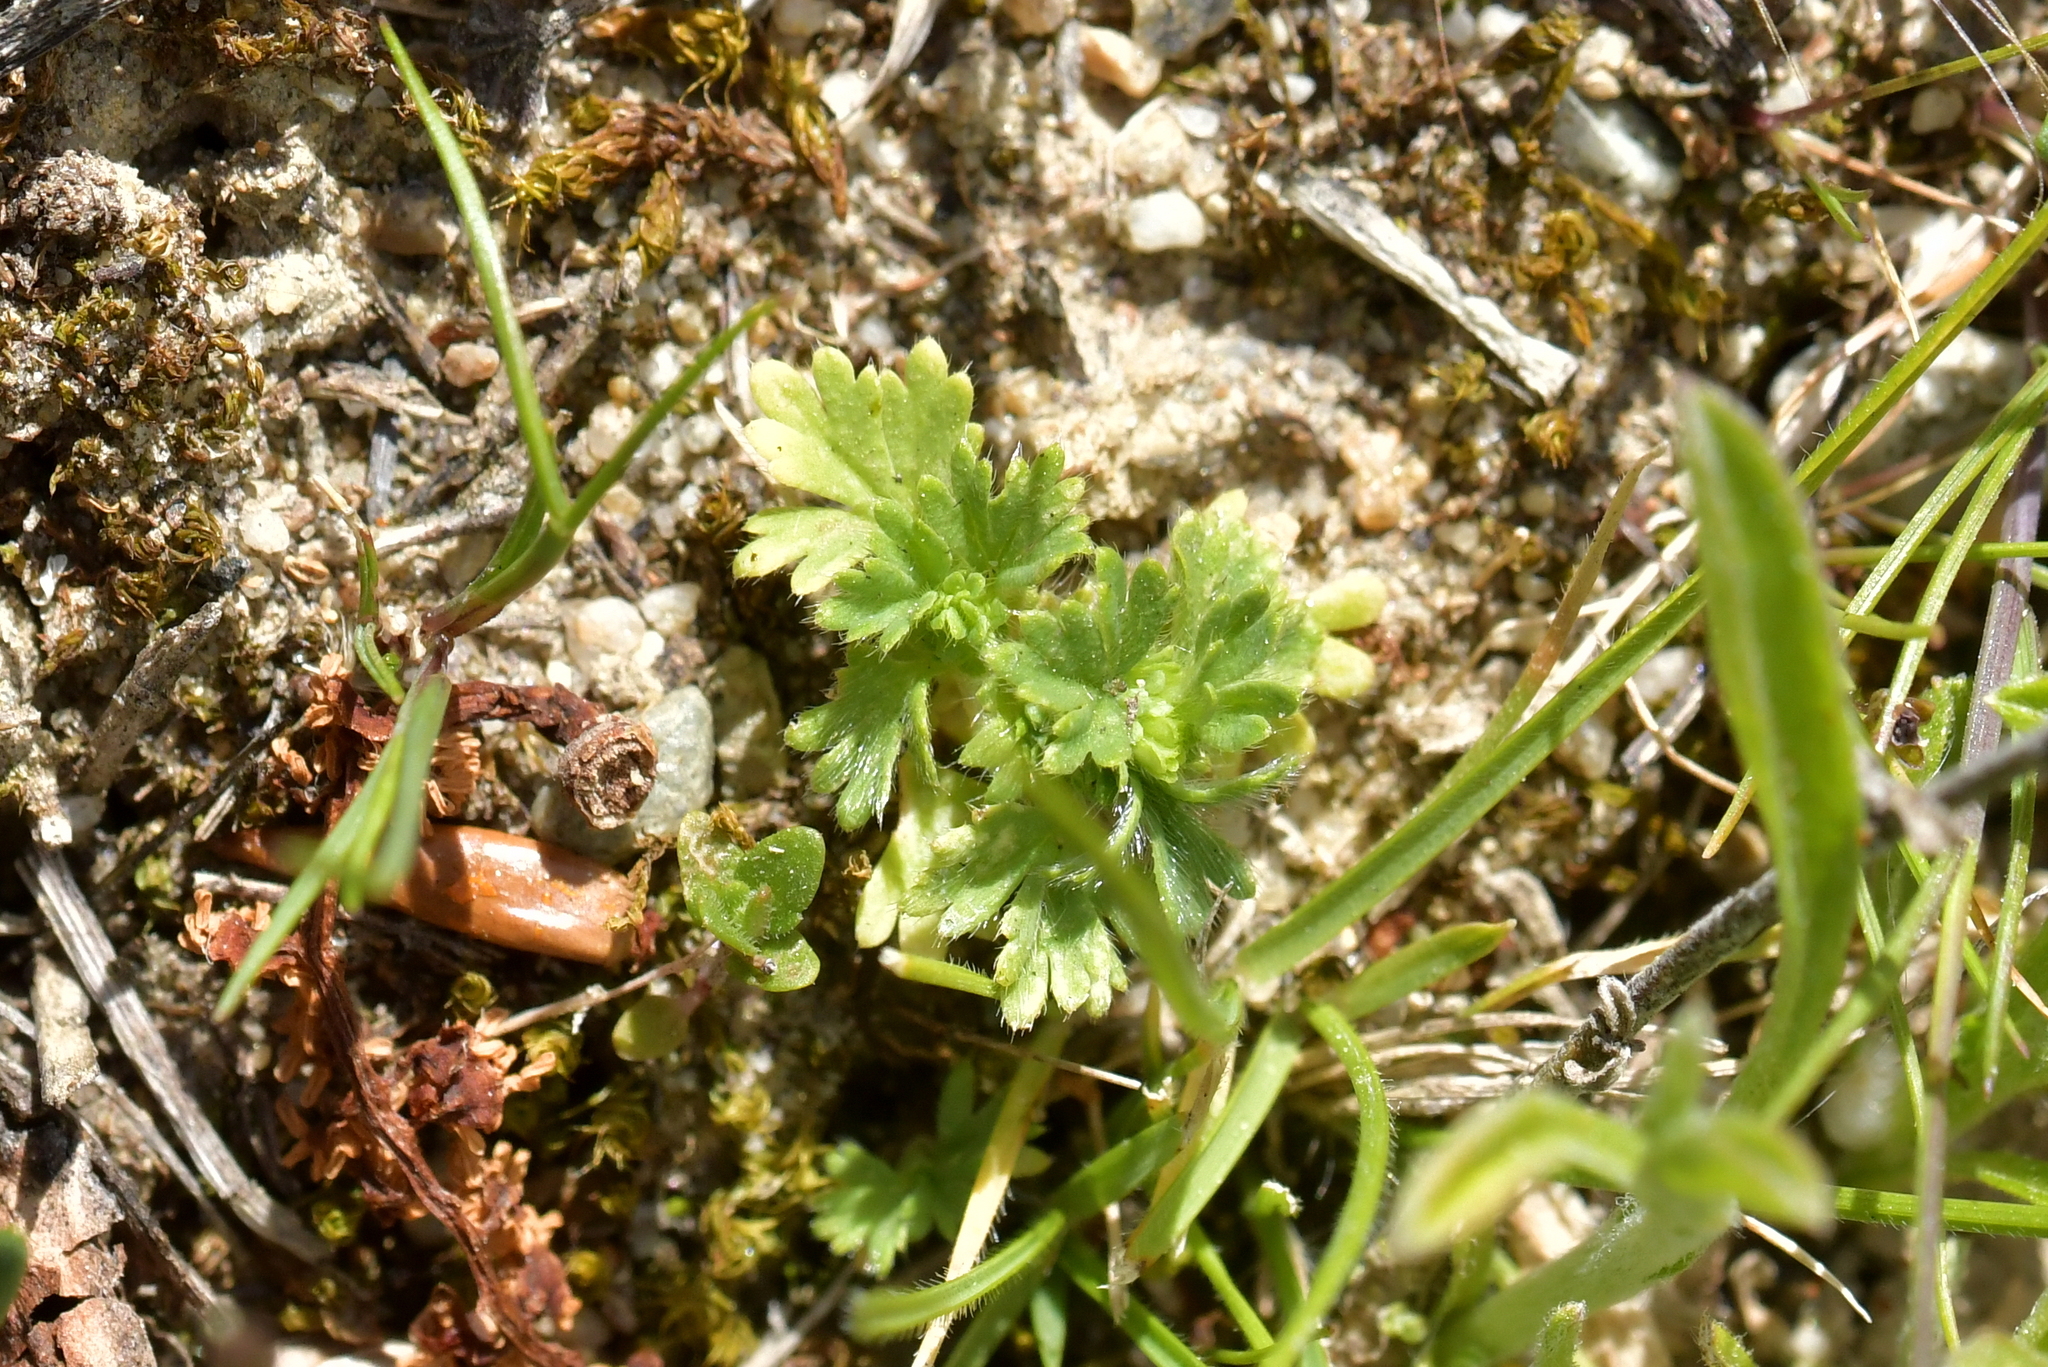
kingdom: Plantae
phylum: Tracheophyta
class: Magnoliopsida
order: Rosales
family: Rosaceae
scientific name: Rosaceae
